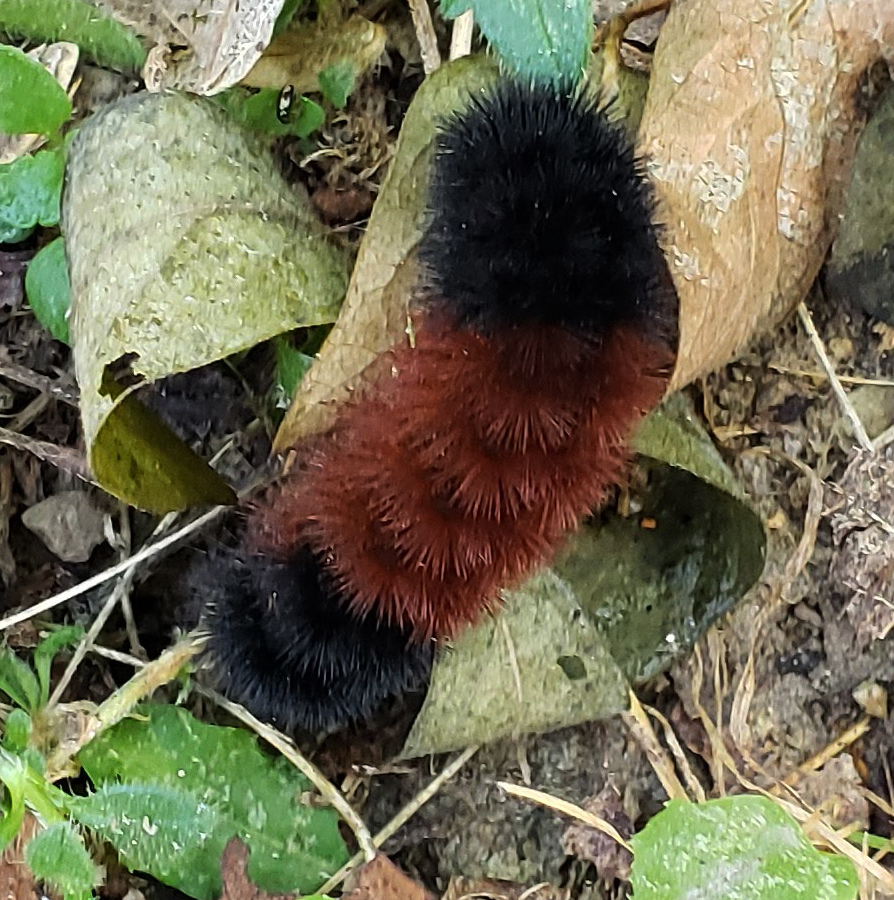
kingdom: Animalia
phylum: Arthropoda
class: Insecta
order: Lepidoptera
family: Erebidae
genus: Pyrrharctia
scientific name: Pyrrharctia isabella
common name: Isabella tiger moth
